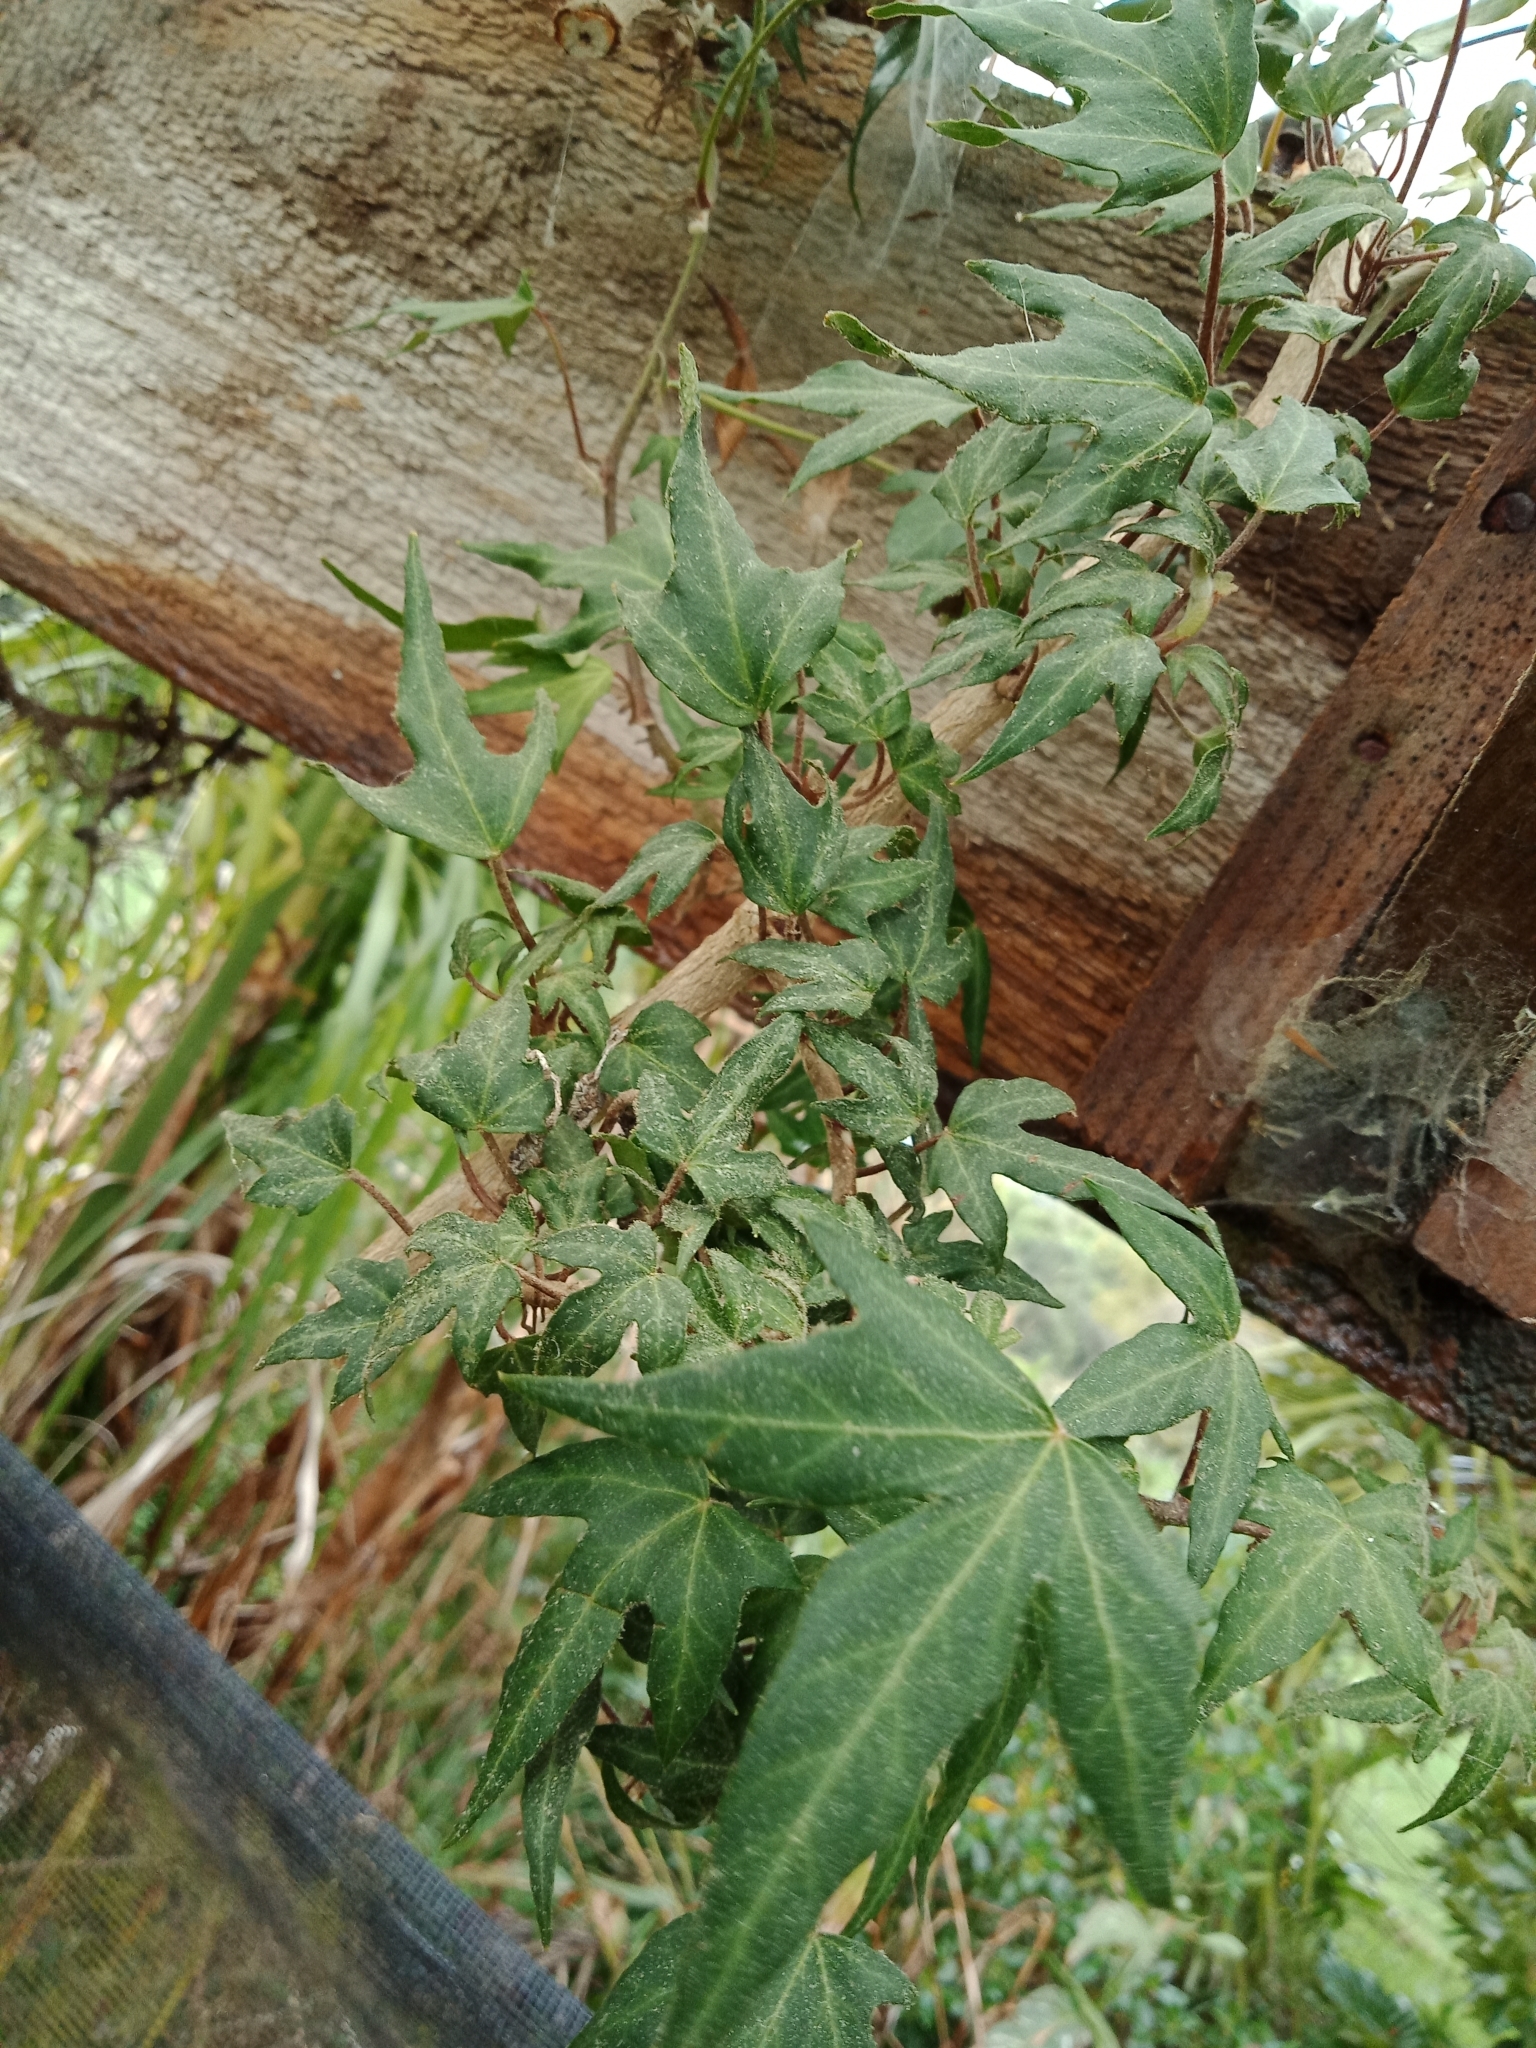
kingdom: Plantae
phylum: Tracheophyta
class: Magnoliopsida
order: Apiales
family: Araliaceae
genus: Hedera
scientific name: Hedera helix
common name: Ivy
